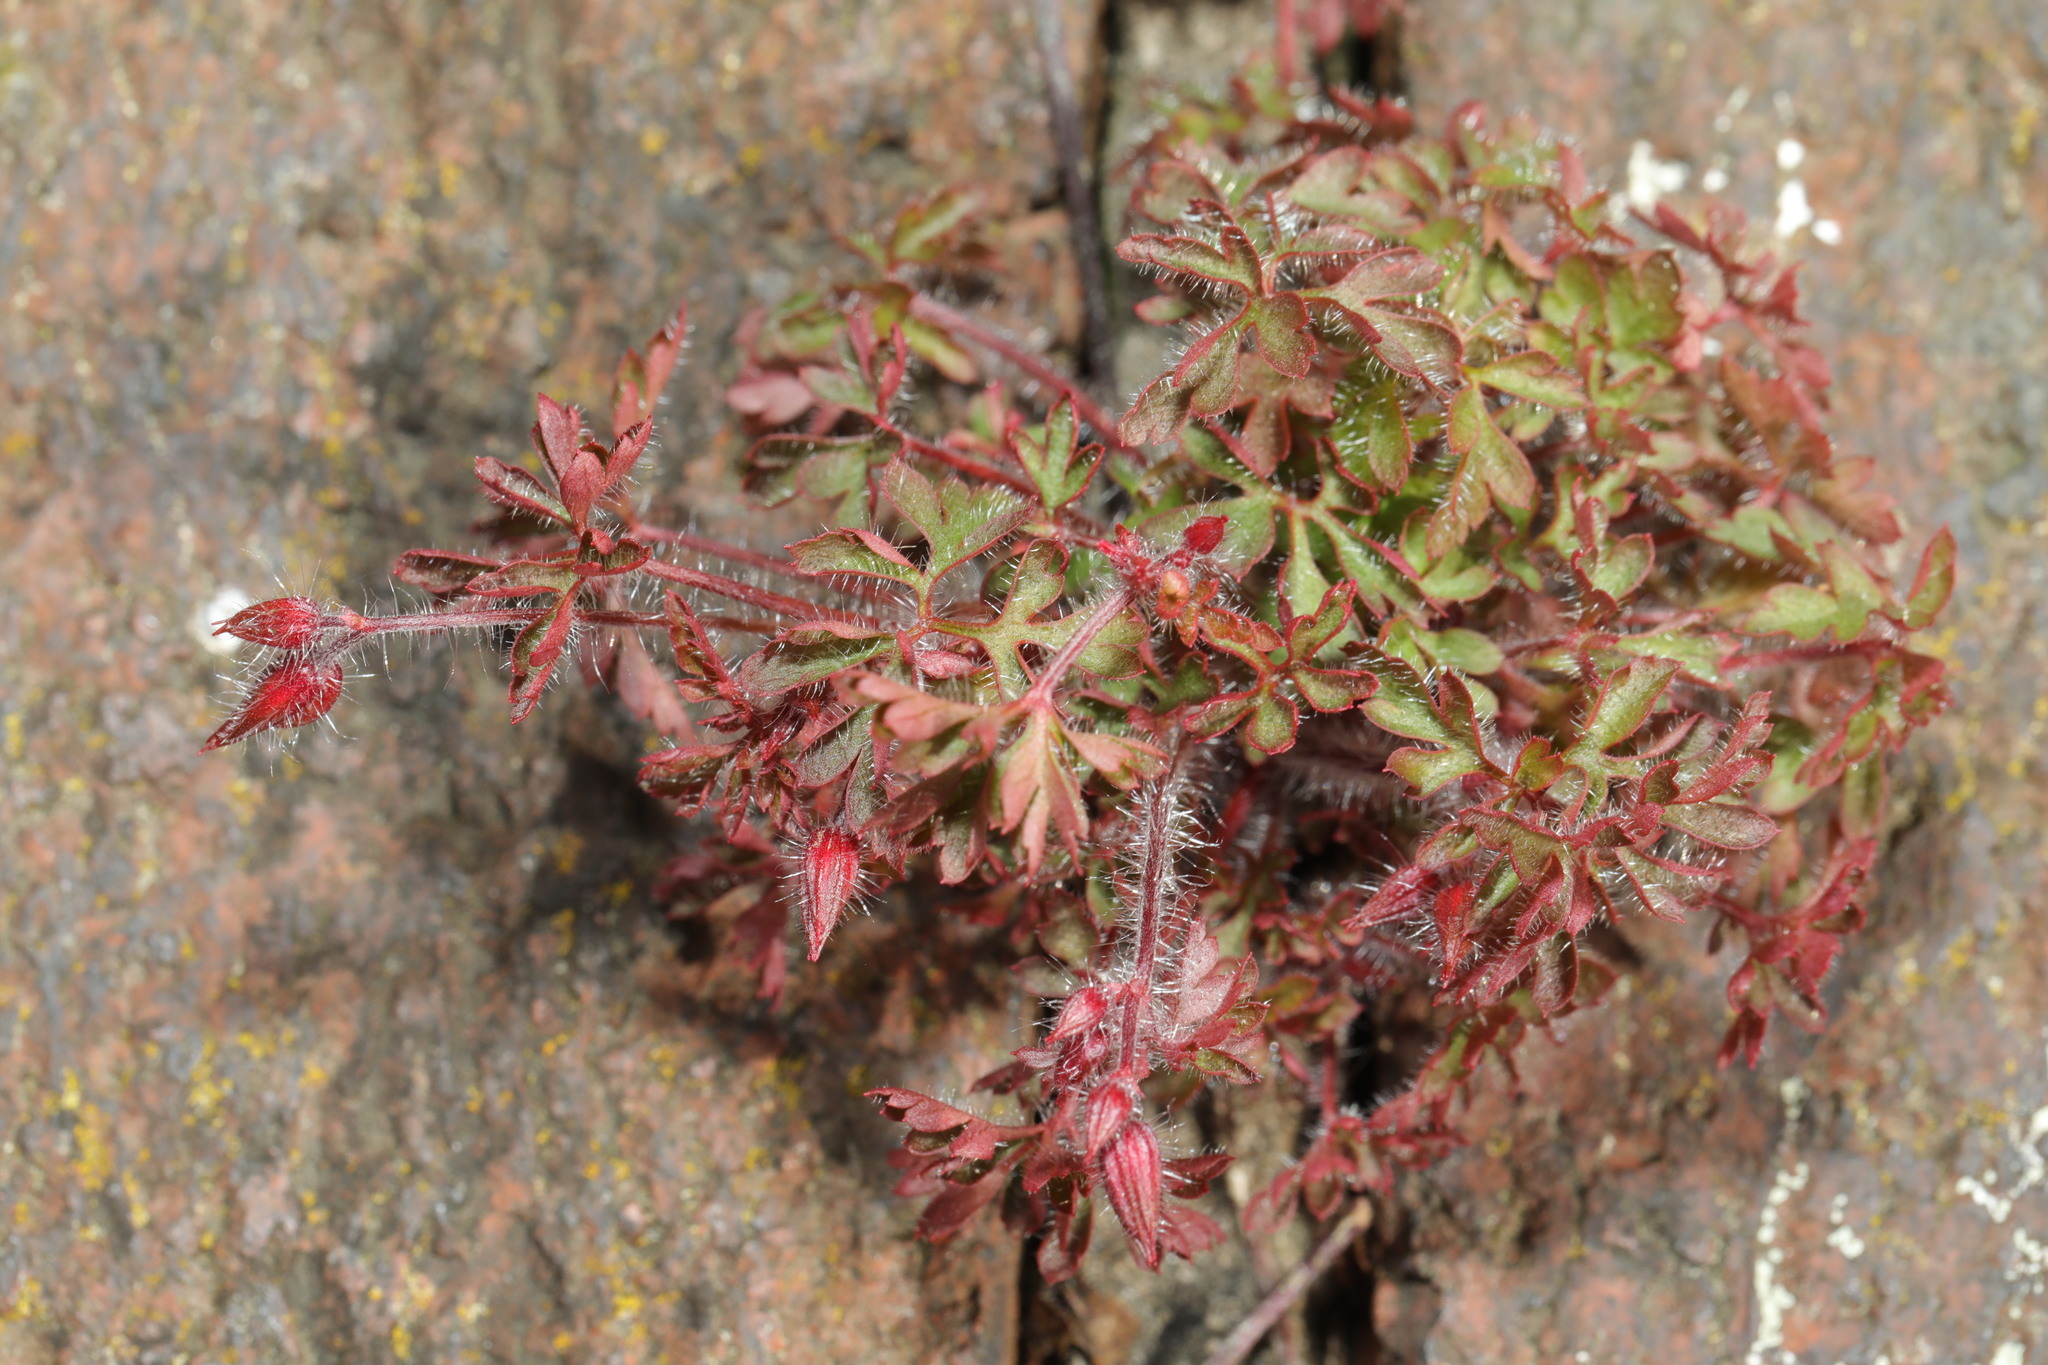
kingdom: Plantae
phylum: Tracheophyta
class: Magnoliopsida
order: Geraniales
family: Geraniaceae
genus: Geranium
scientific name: Geranium robertianum
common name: Herb-robert
